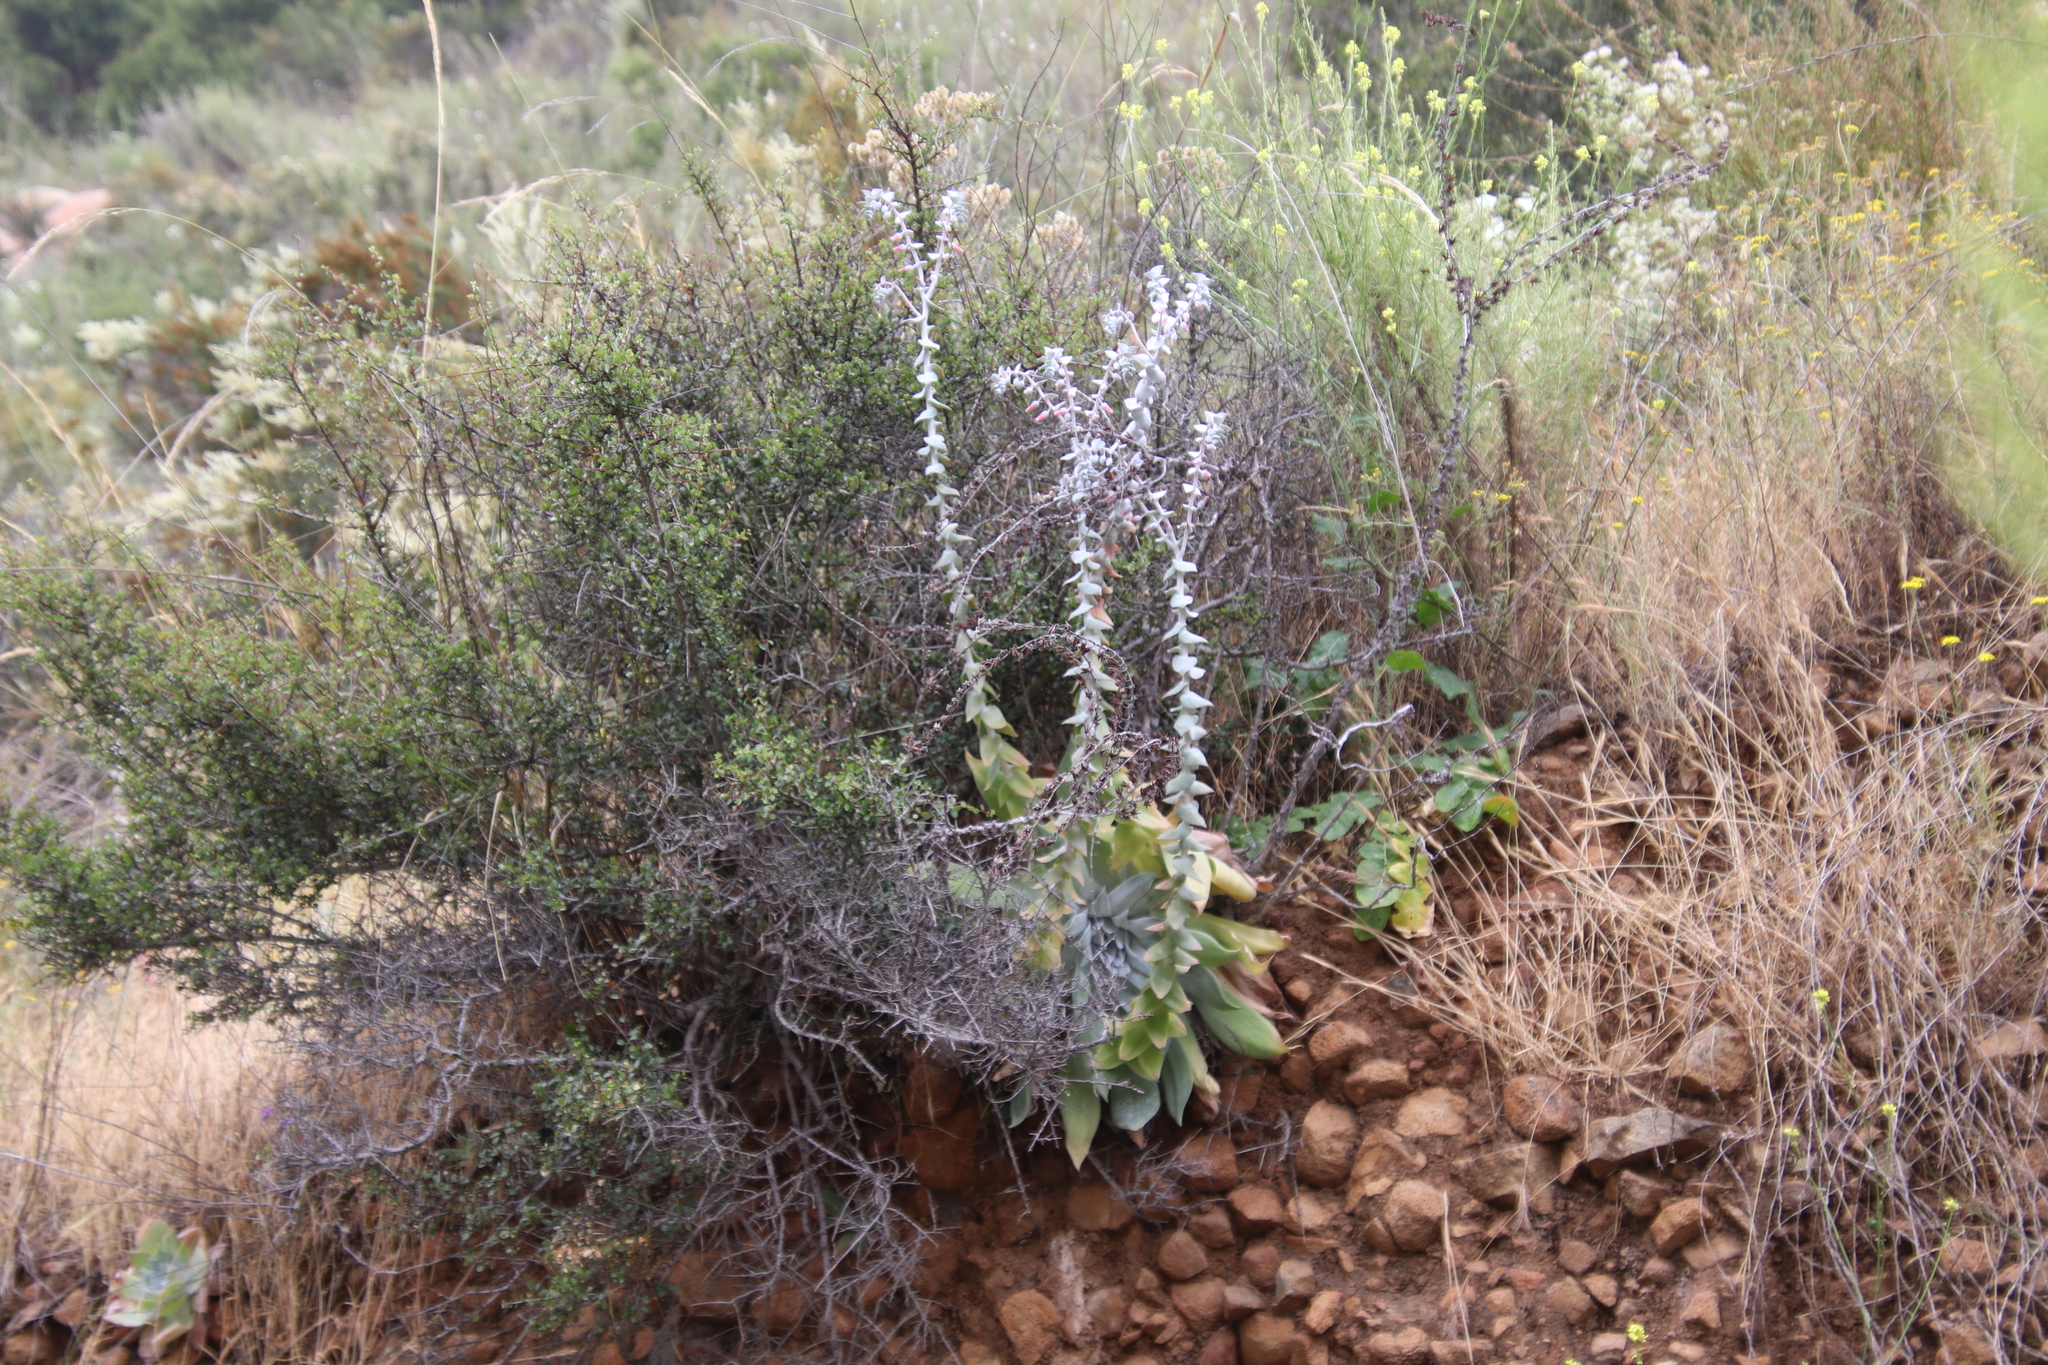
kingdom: Plantae
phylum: Tracheophyta
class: Magnoliopsida
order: Saxifragales
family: Crassulaceae
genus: Dudleya
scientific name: Dudleya pulverulenta
